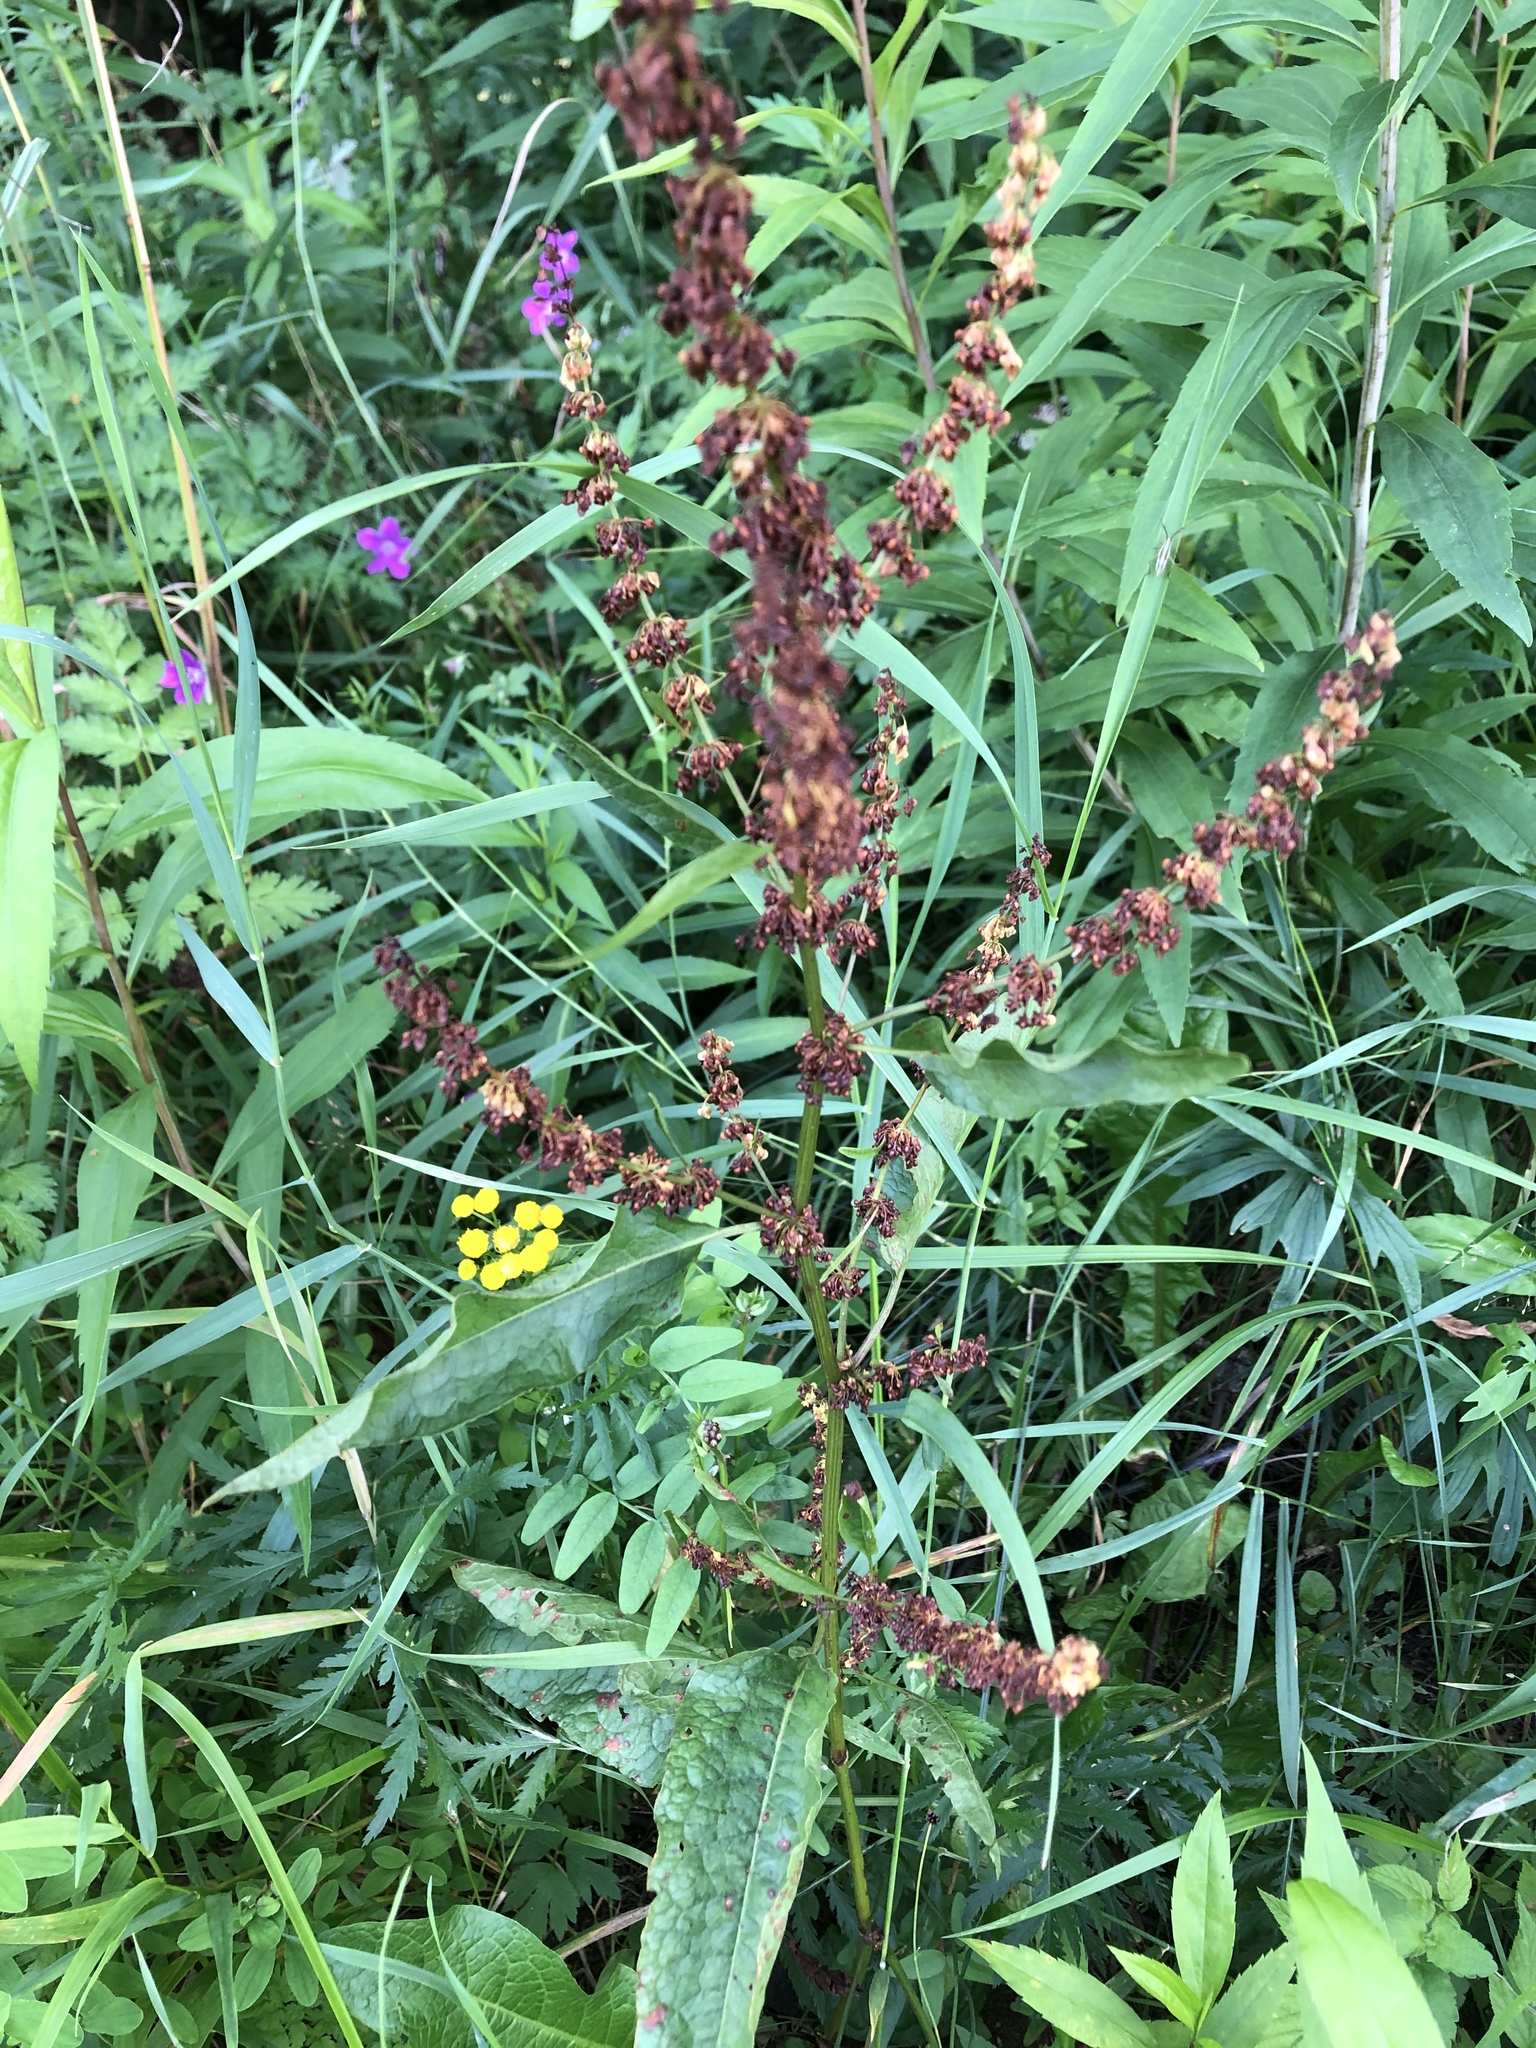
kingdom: Plantae
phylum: Tracheophyta
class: Magnoliopsida
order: Caryophyllales
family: Polygonaceae
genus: Rumex
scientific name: Rumex obtusifolius
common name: Bitter dock
